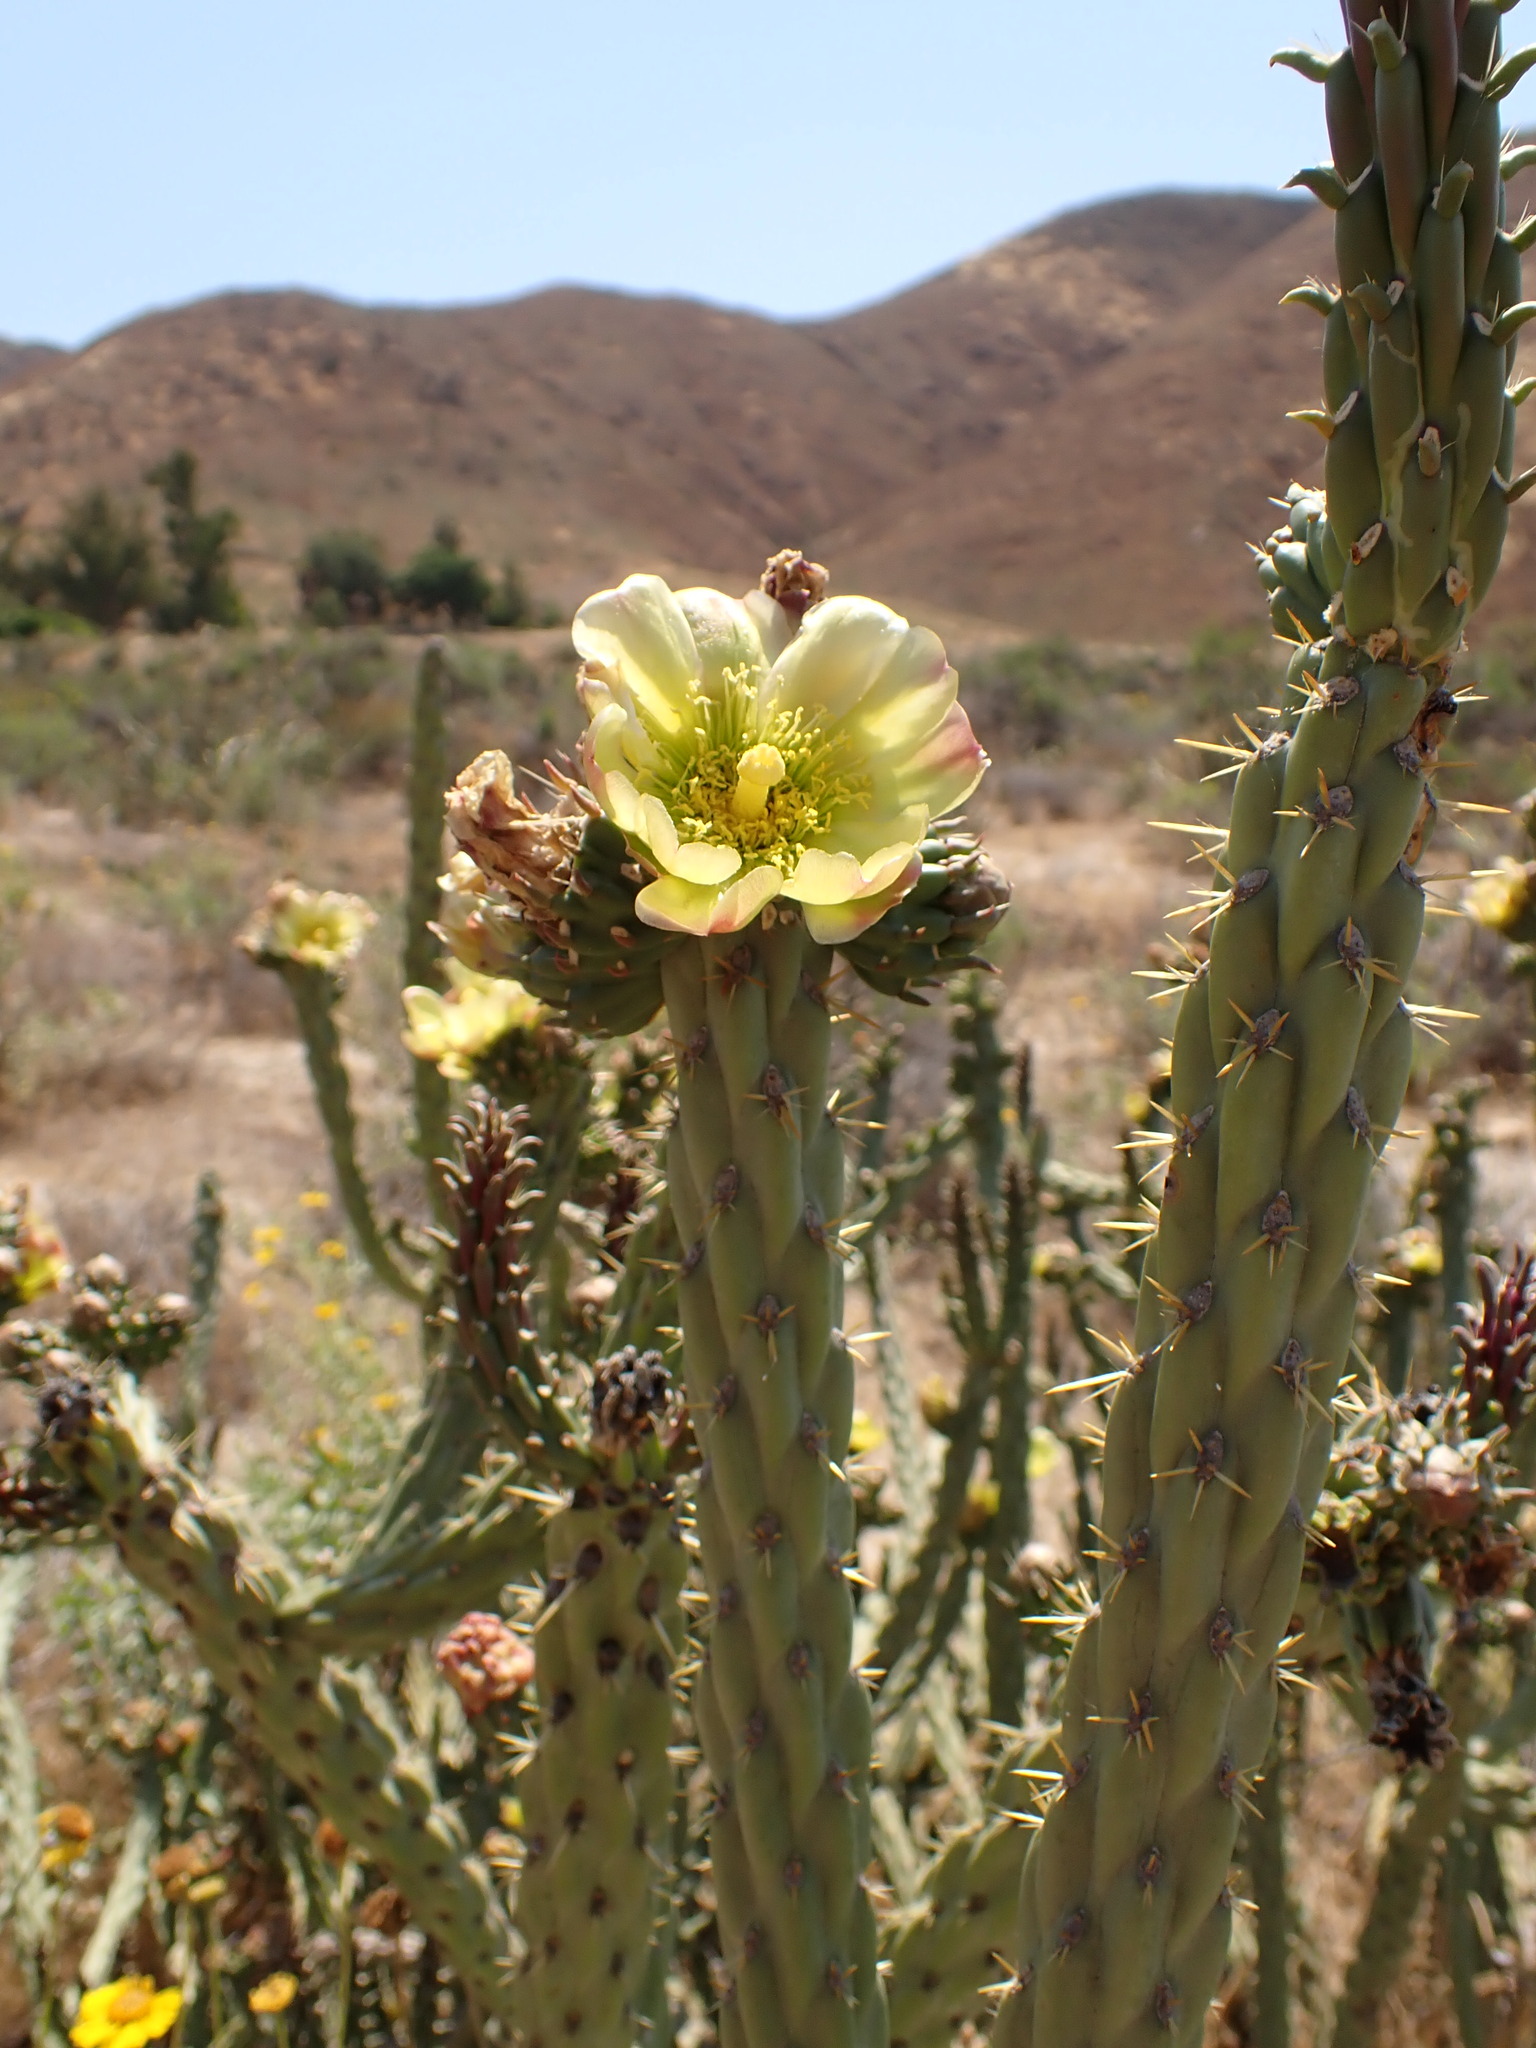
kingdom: Plantae
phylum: Tracheophyta
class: Magnoliopsida
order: Caryophyllales
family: Cactaceae
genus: Cylindropuntia
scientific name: Cylindropuntia bernardina
